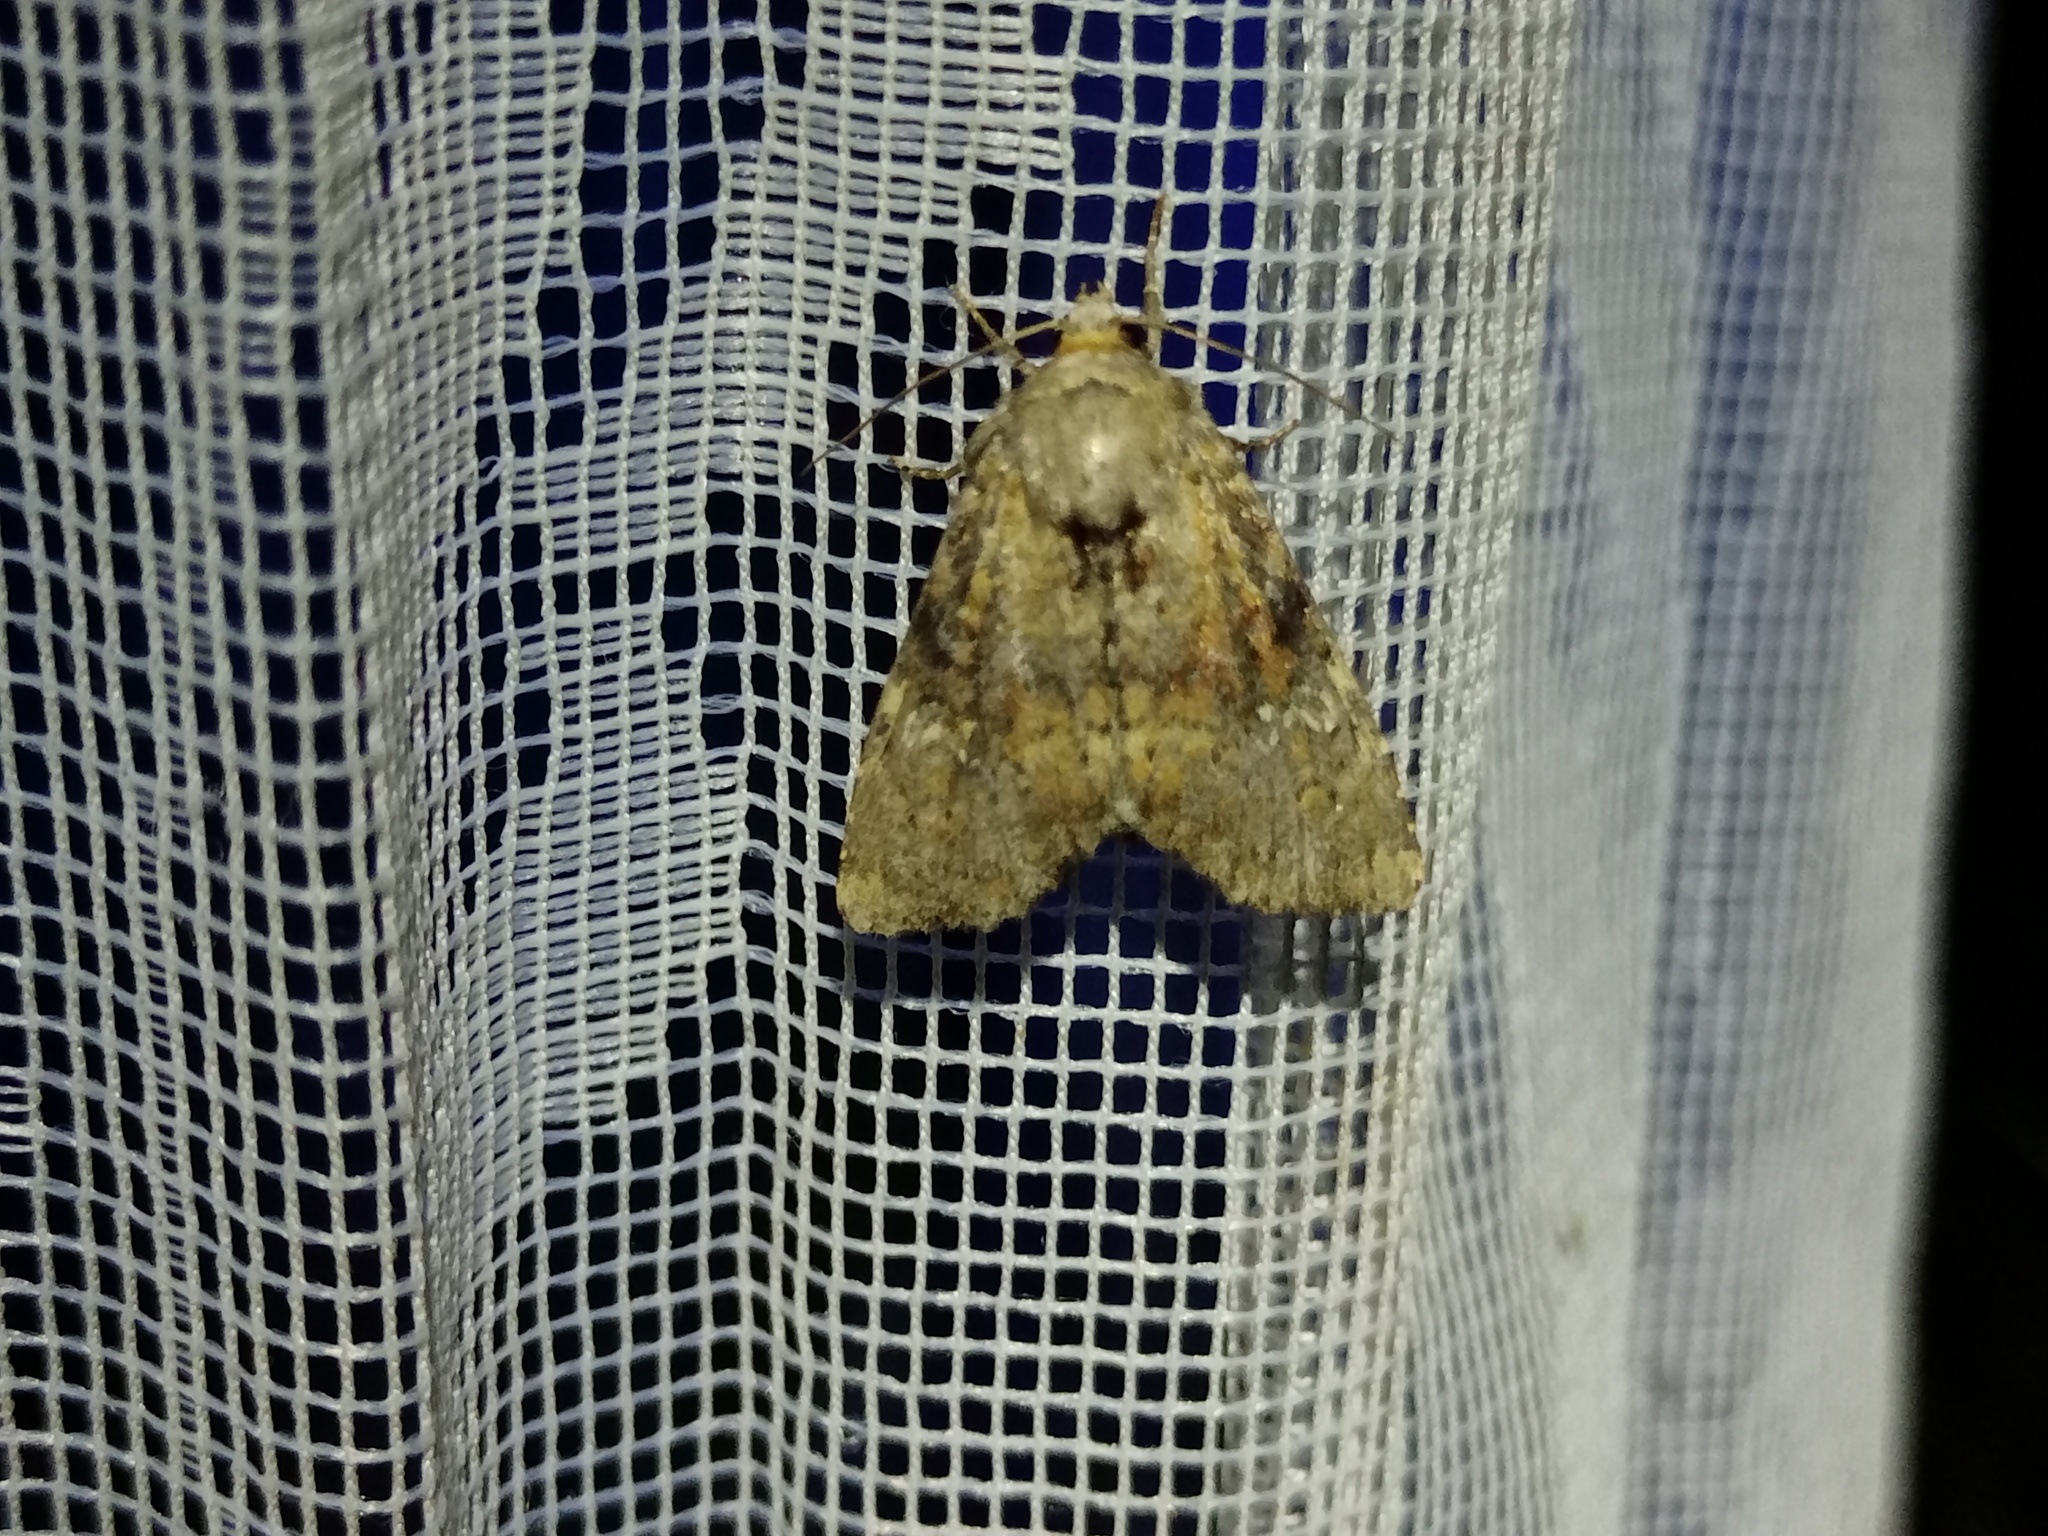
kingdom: Animalia
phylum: Arthropoda
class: Insecta
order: Lepidoptera
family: Noctuidae
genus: Loscopia
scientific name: Loscopia scolopacina
